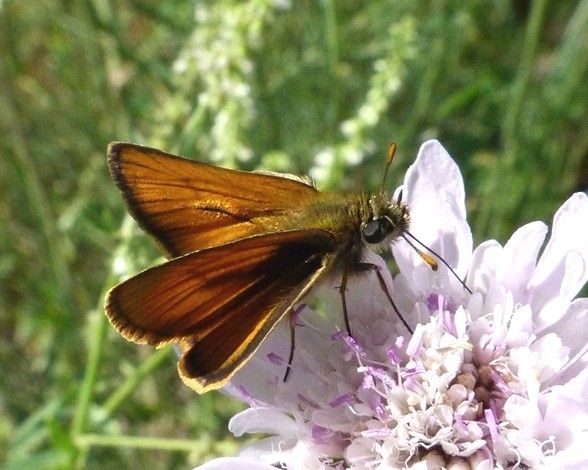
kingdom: Animalia
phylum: Arthropoda
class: Insecta
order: Lepidoptera
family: Hesperiidae
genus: Thymelicus
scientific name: Thymelicus sylvestris
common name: Small skipper
